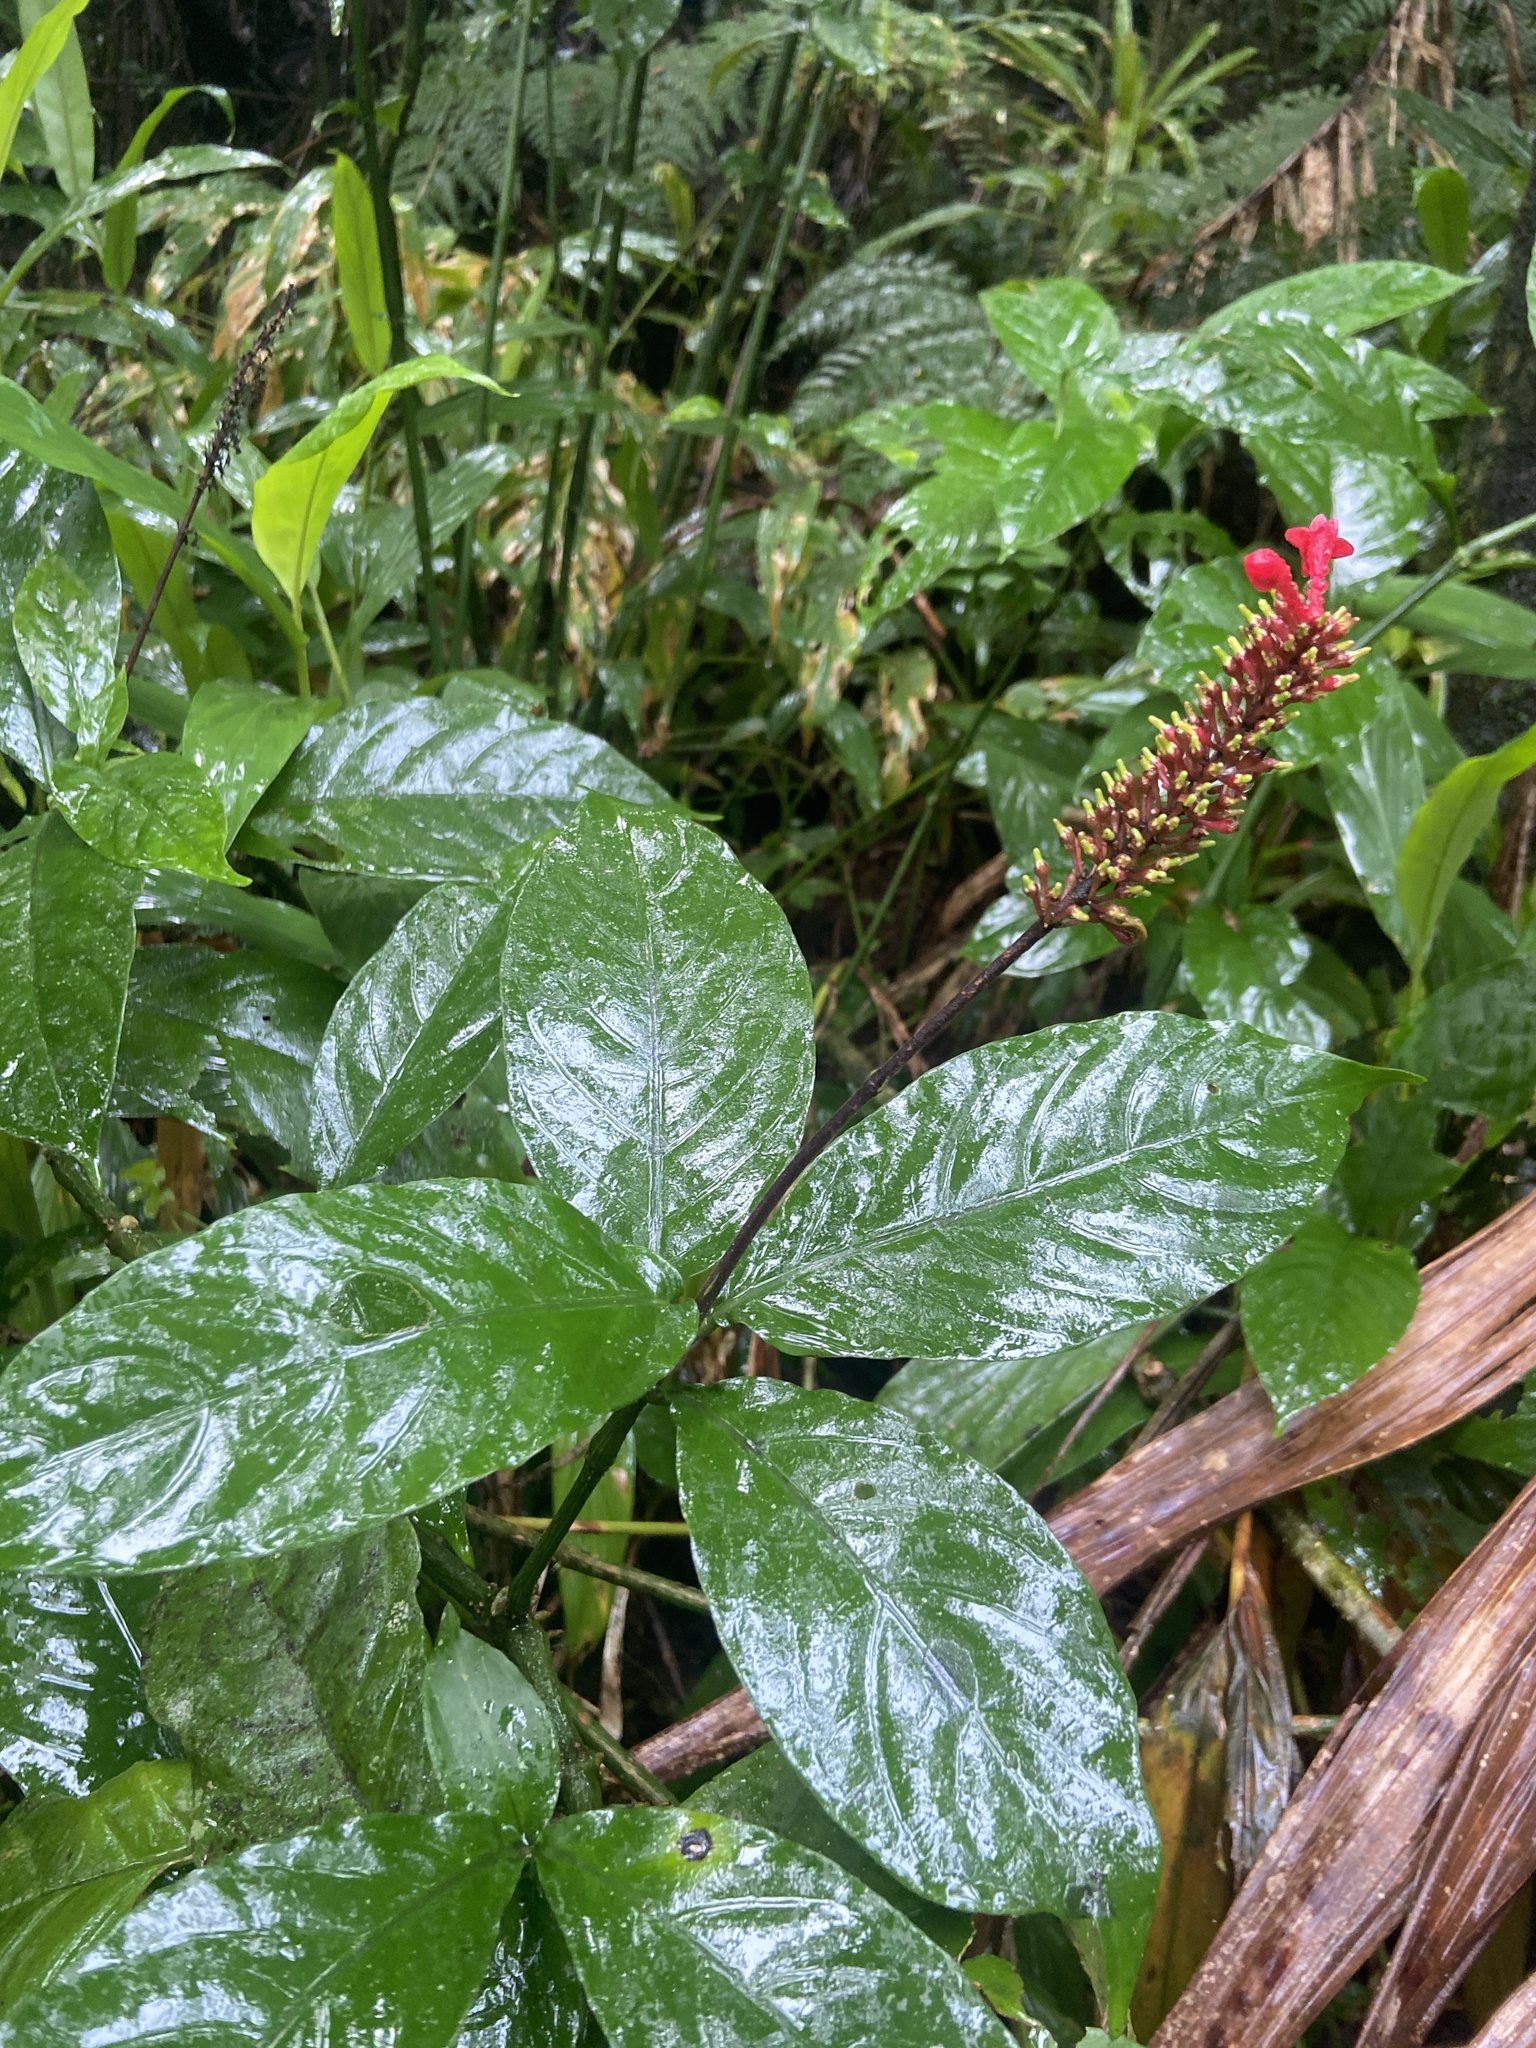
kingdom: Plantae
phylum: Tracheophyta
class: Magnoliopsida
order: Lamiales
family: Acanthaceae
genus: Odontonema
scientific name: Odontonema cuspidatum
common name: Mottled toothedthread
